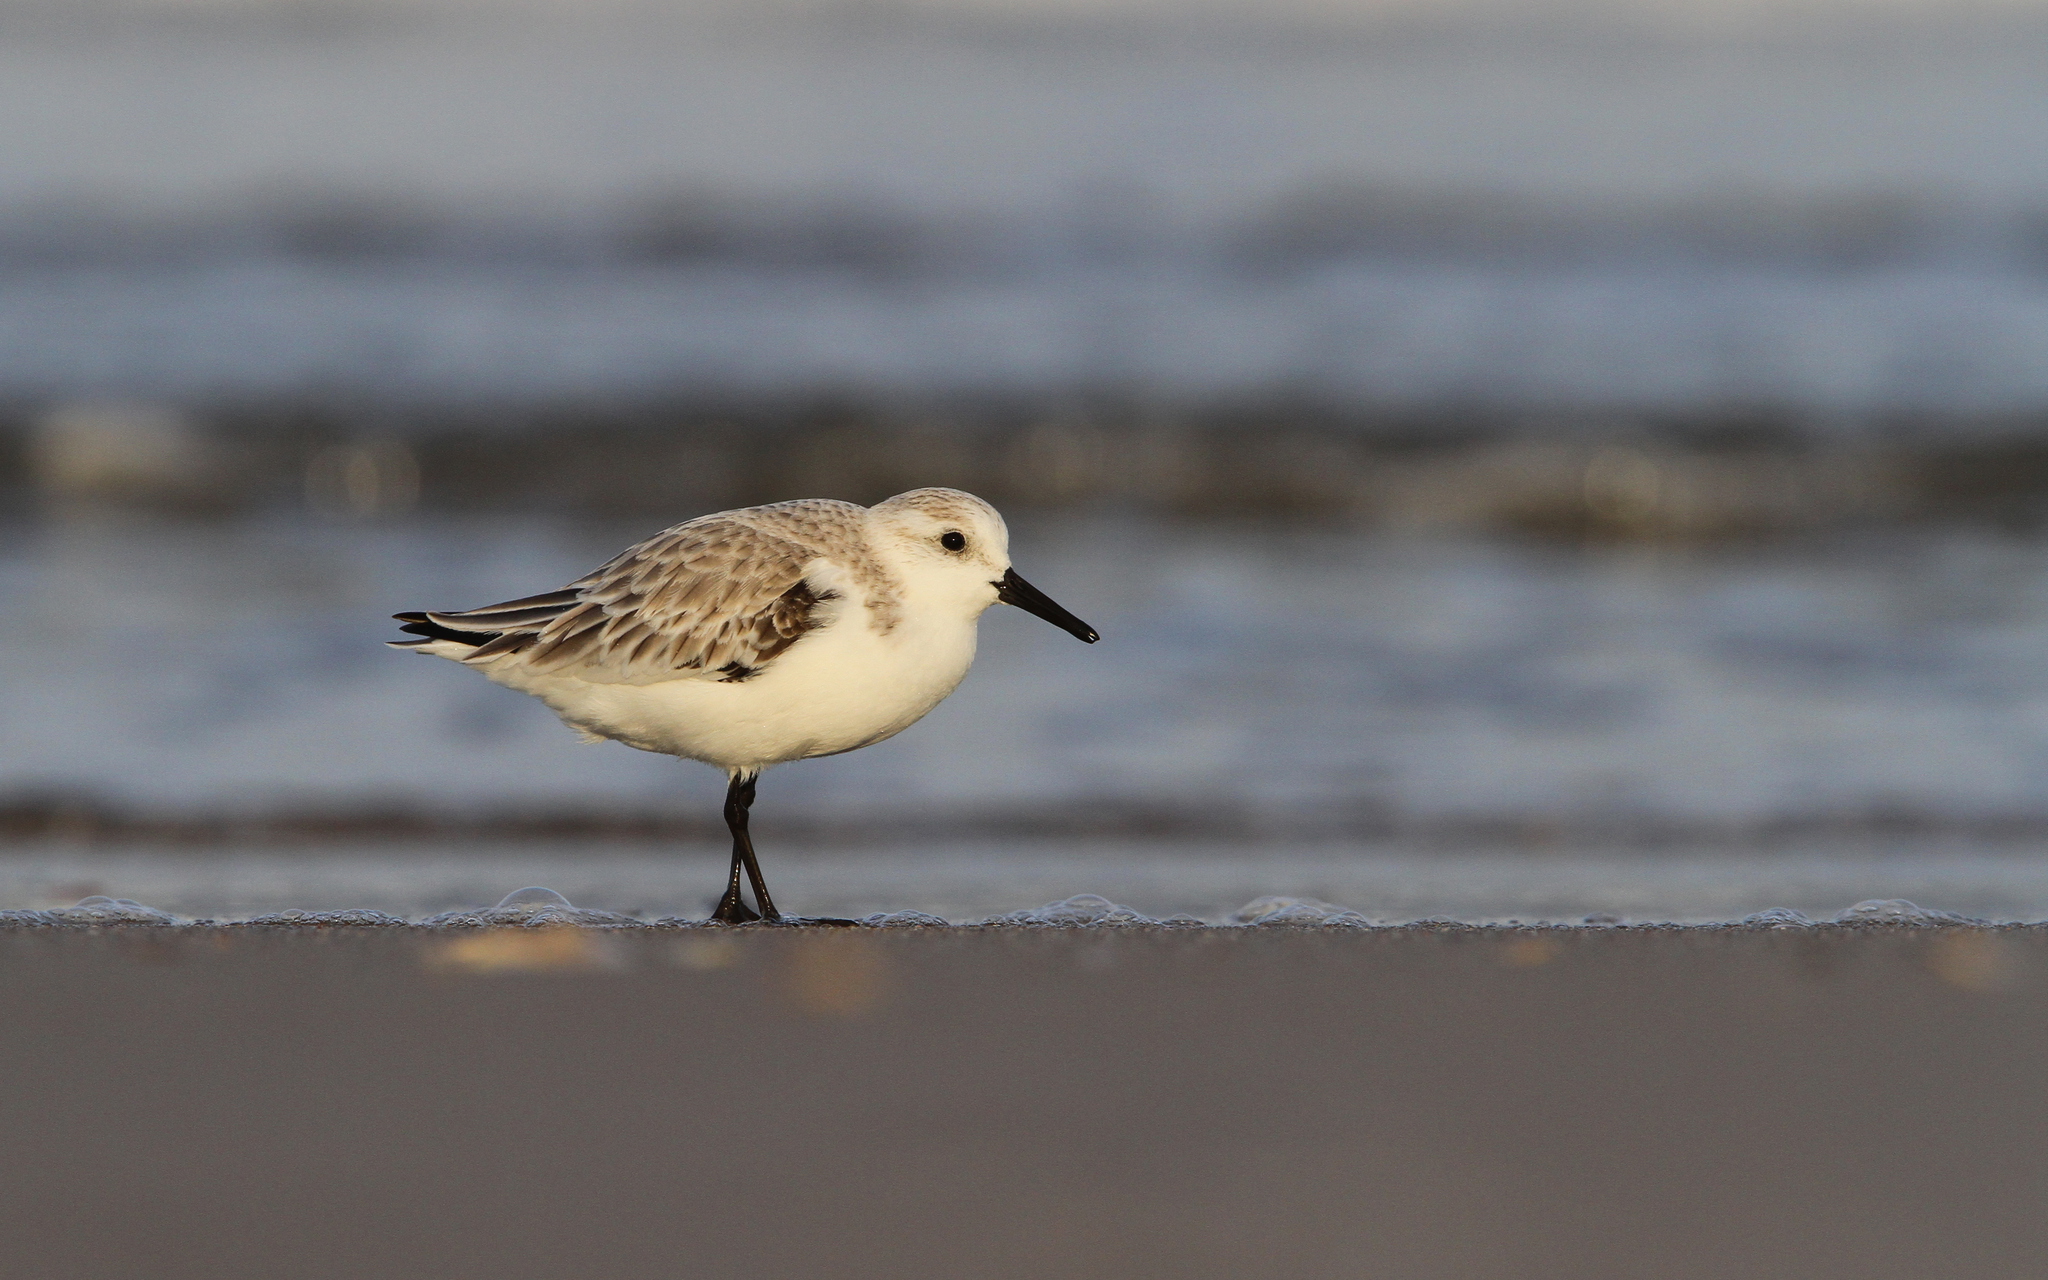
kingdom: Animalia
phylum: Chordata
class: Aves
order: Charadriiformes
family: Scolopacidae
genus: Calidris
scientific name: Calidris alba
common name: Sanderling
